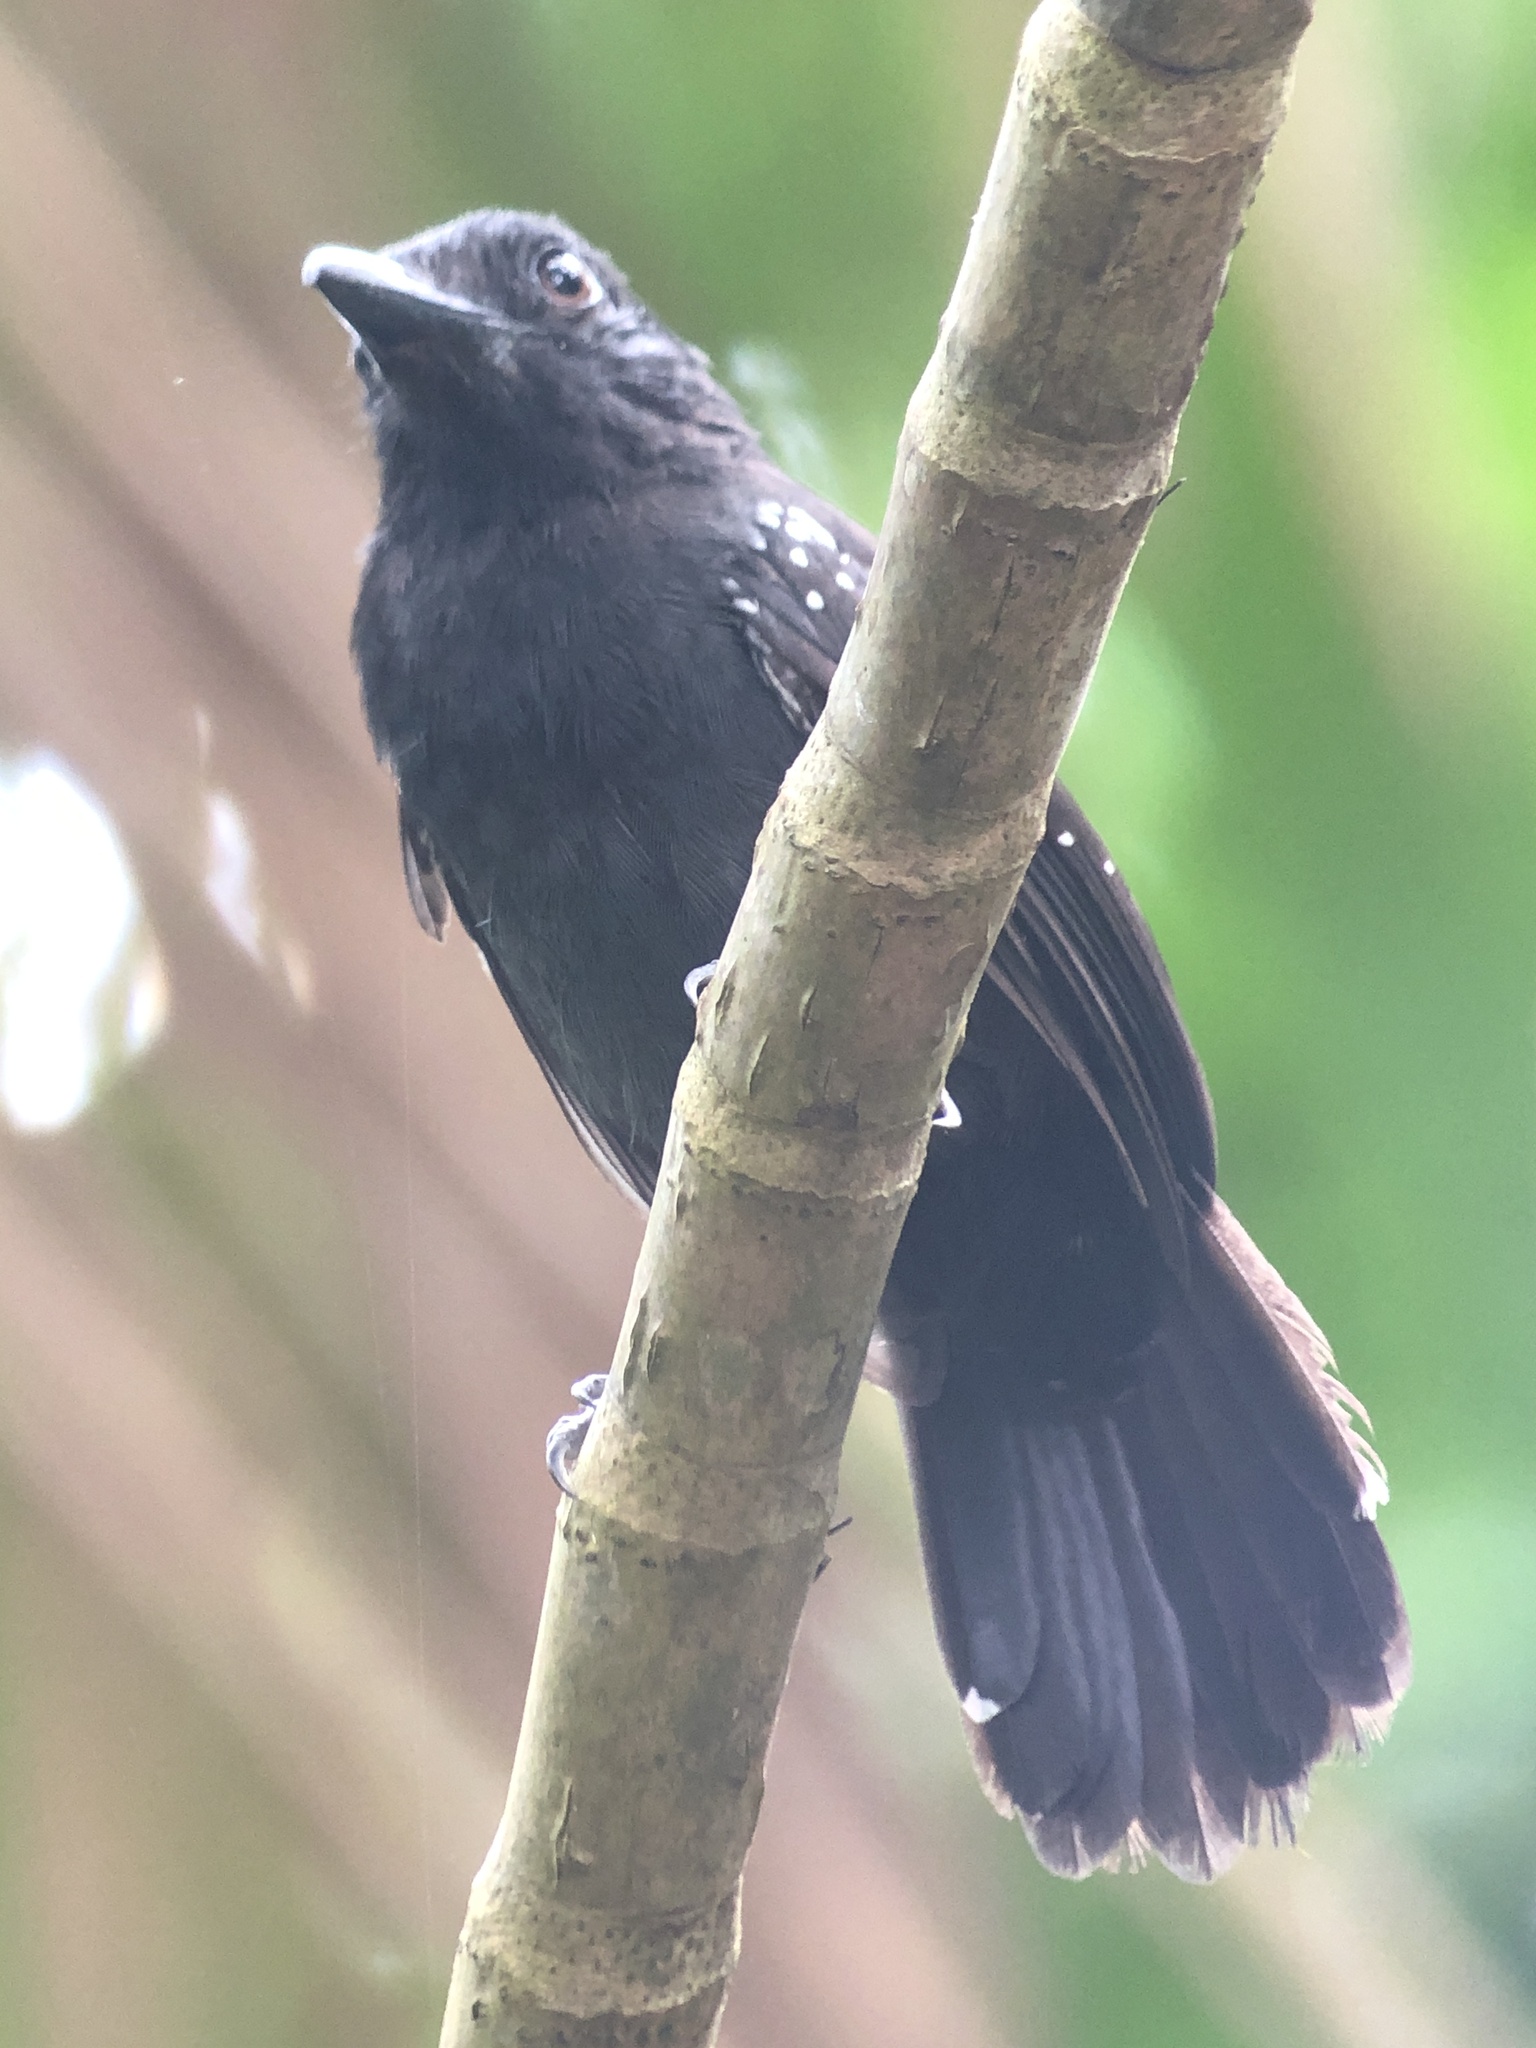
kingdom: Animalia
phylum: Chordata
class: Aves
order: Passeriformes
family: Thamnophilidae
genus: Thamnophilus
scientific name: Thamnophilus bridgesi
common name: Black-hooded antshrike
